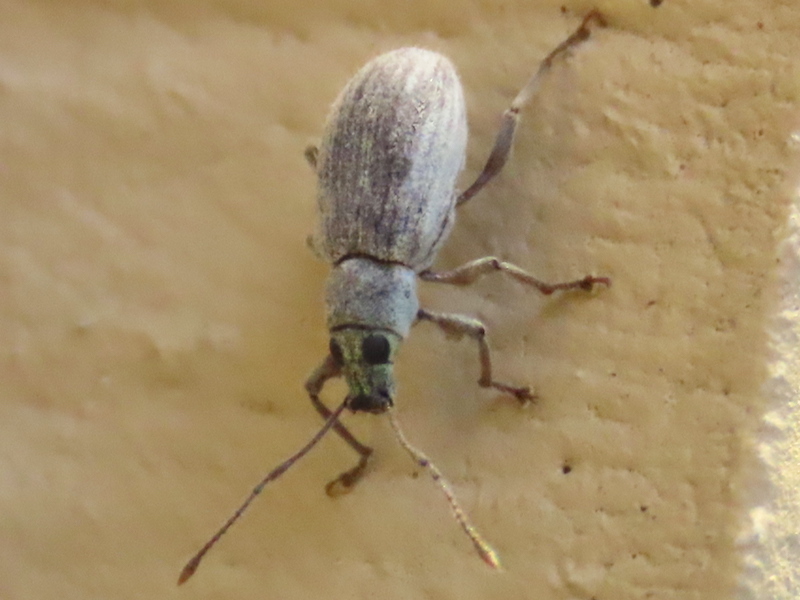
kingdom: Animalia
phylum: Arthropoda
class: Insecta
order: Coleoptera
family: Curculionidae
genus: Cyrtepistomus
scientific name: Cyrtepistomus castaneus
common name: Weevil
